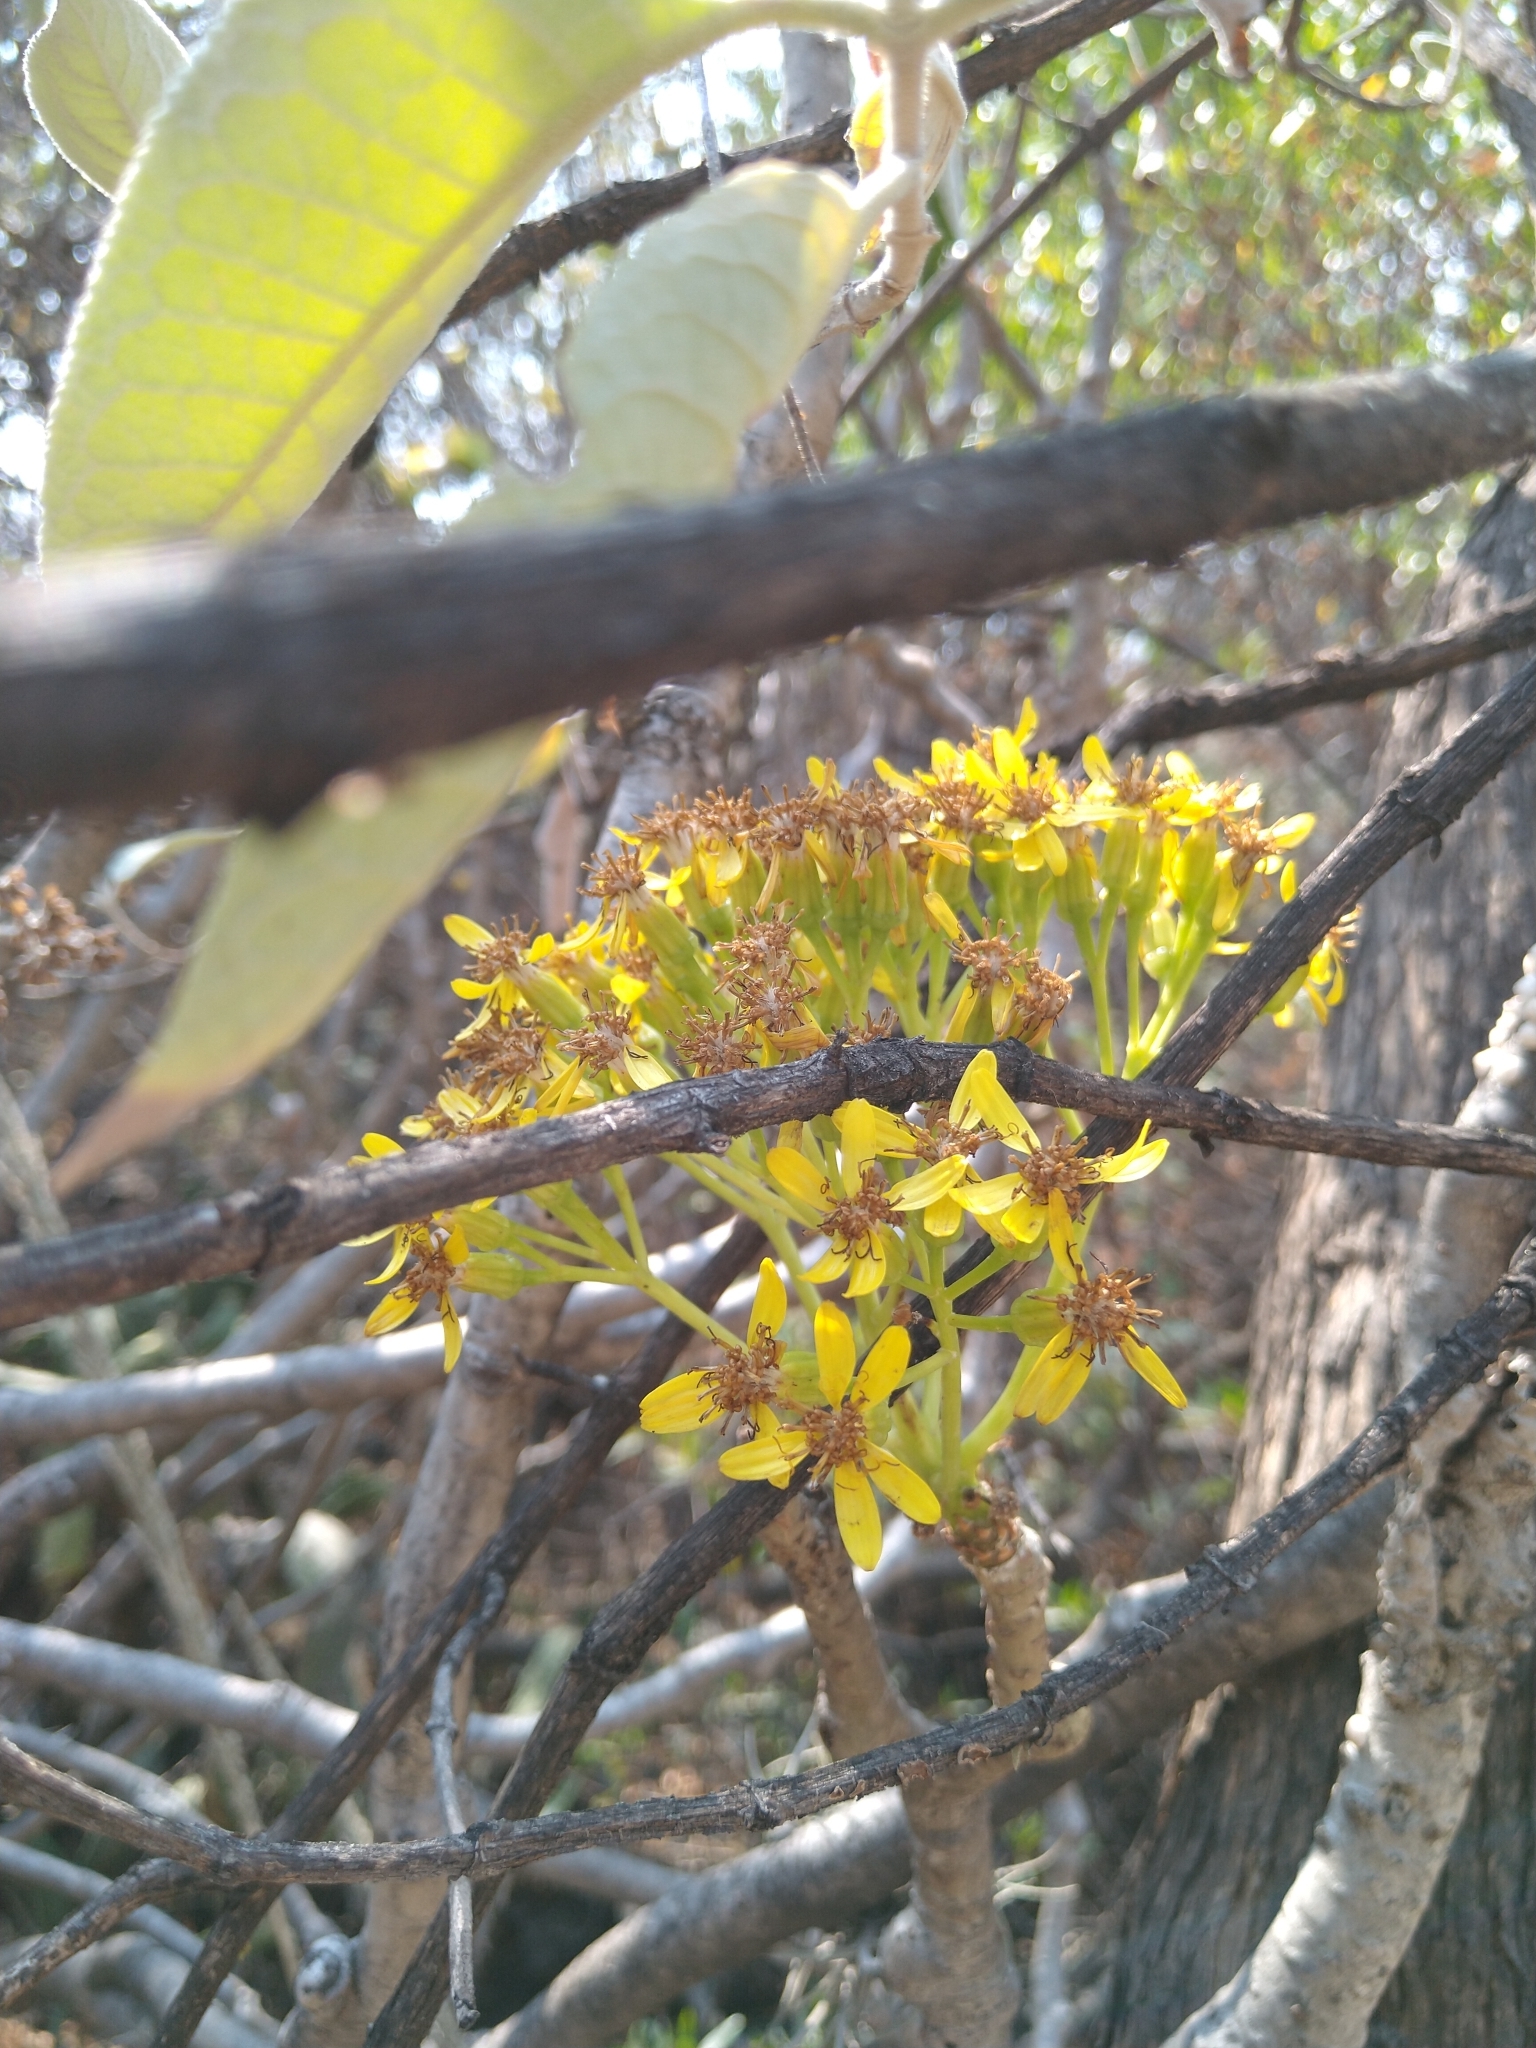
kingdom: Plantae
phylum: Tracheophyta
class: Magnoliopsida
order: Asterales
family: Asteraceae
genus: Pittocaulon
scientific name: Pittocaulon praecox
